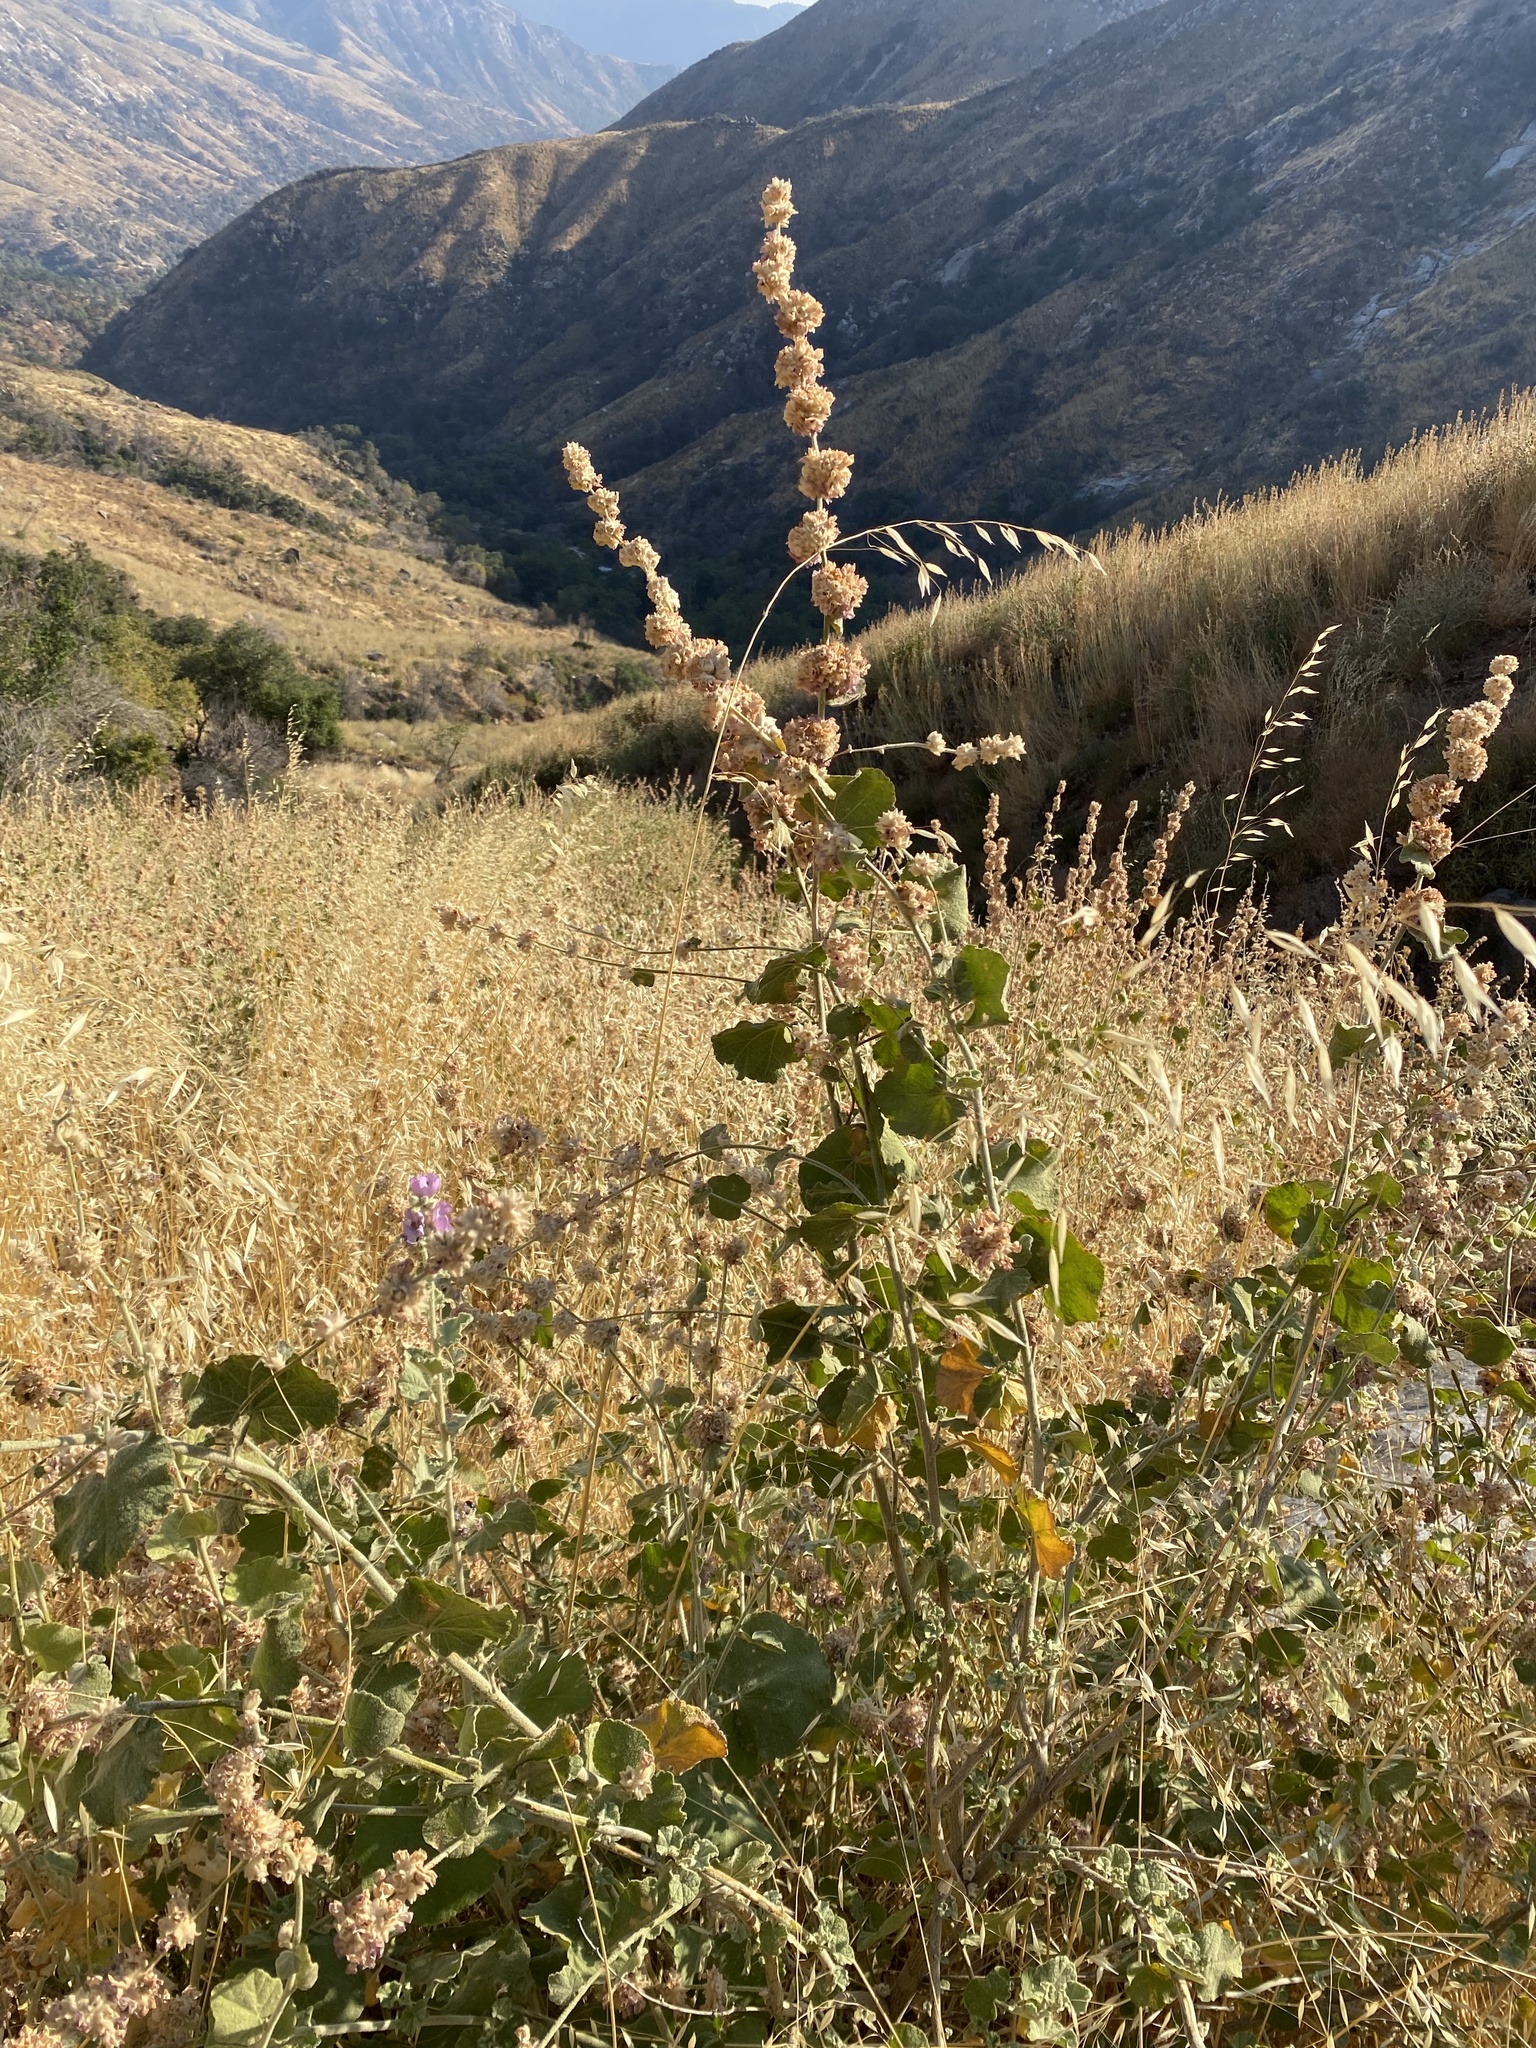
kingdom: Plantae
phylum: Tracheophyta
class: Magnoliopsida
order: Malvales
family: Malvaceae
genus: Malacothamnus
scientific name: Malacothamnus fremontii
